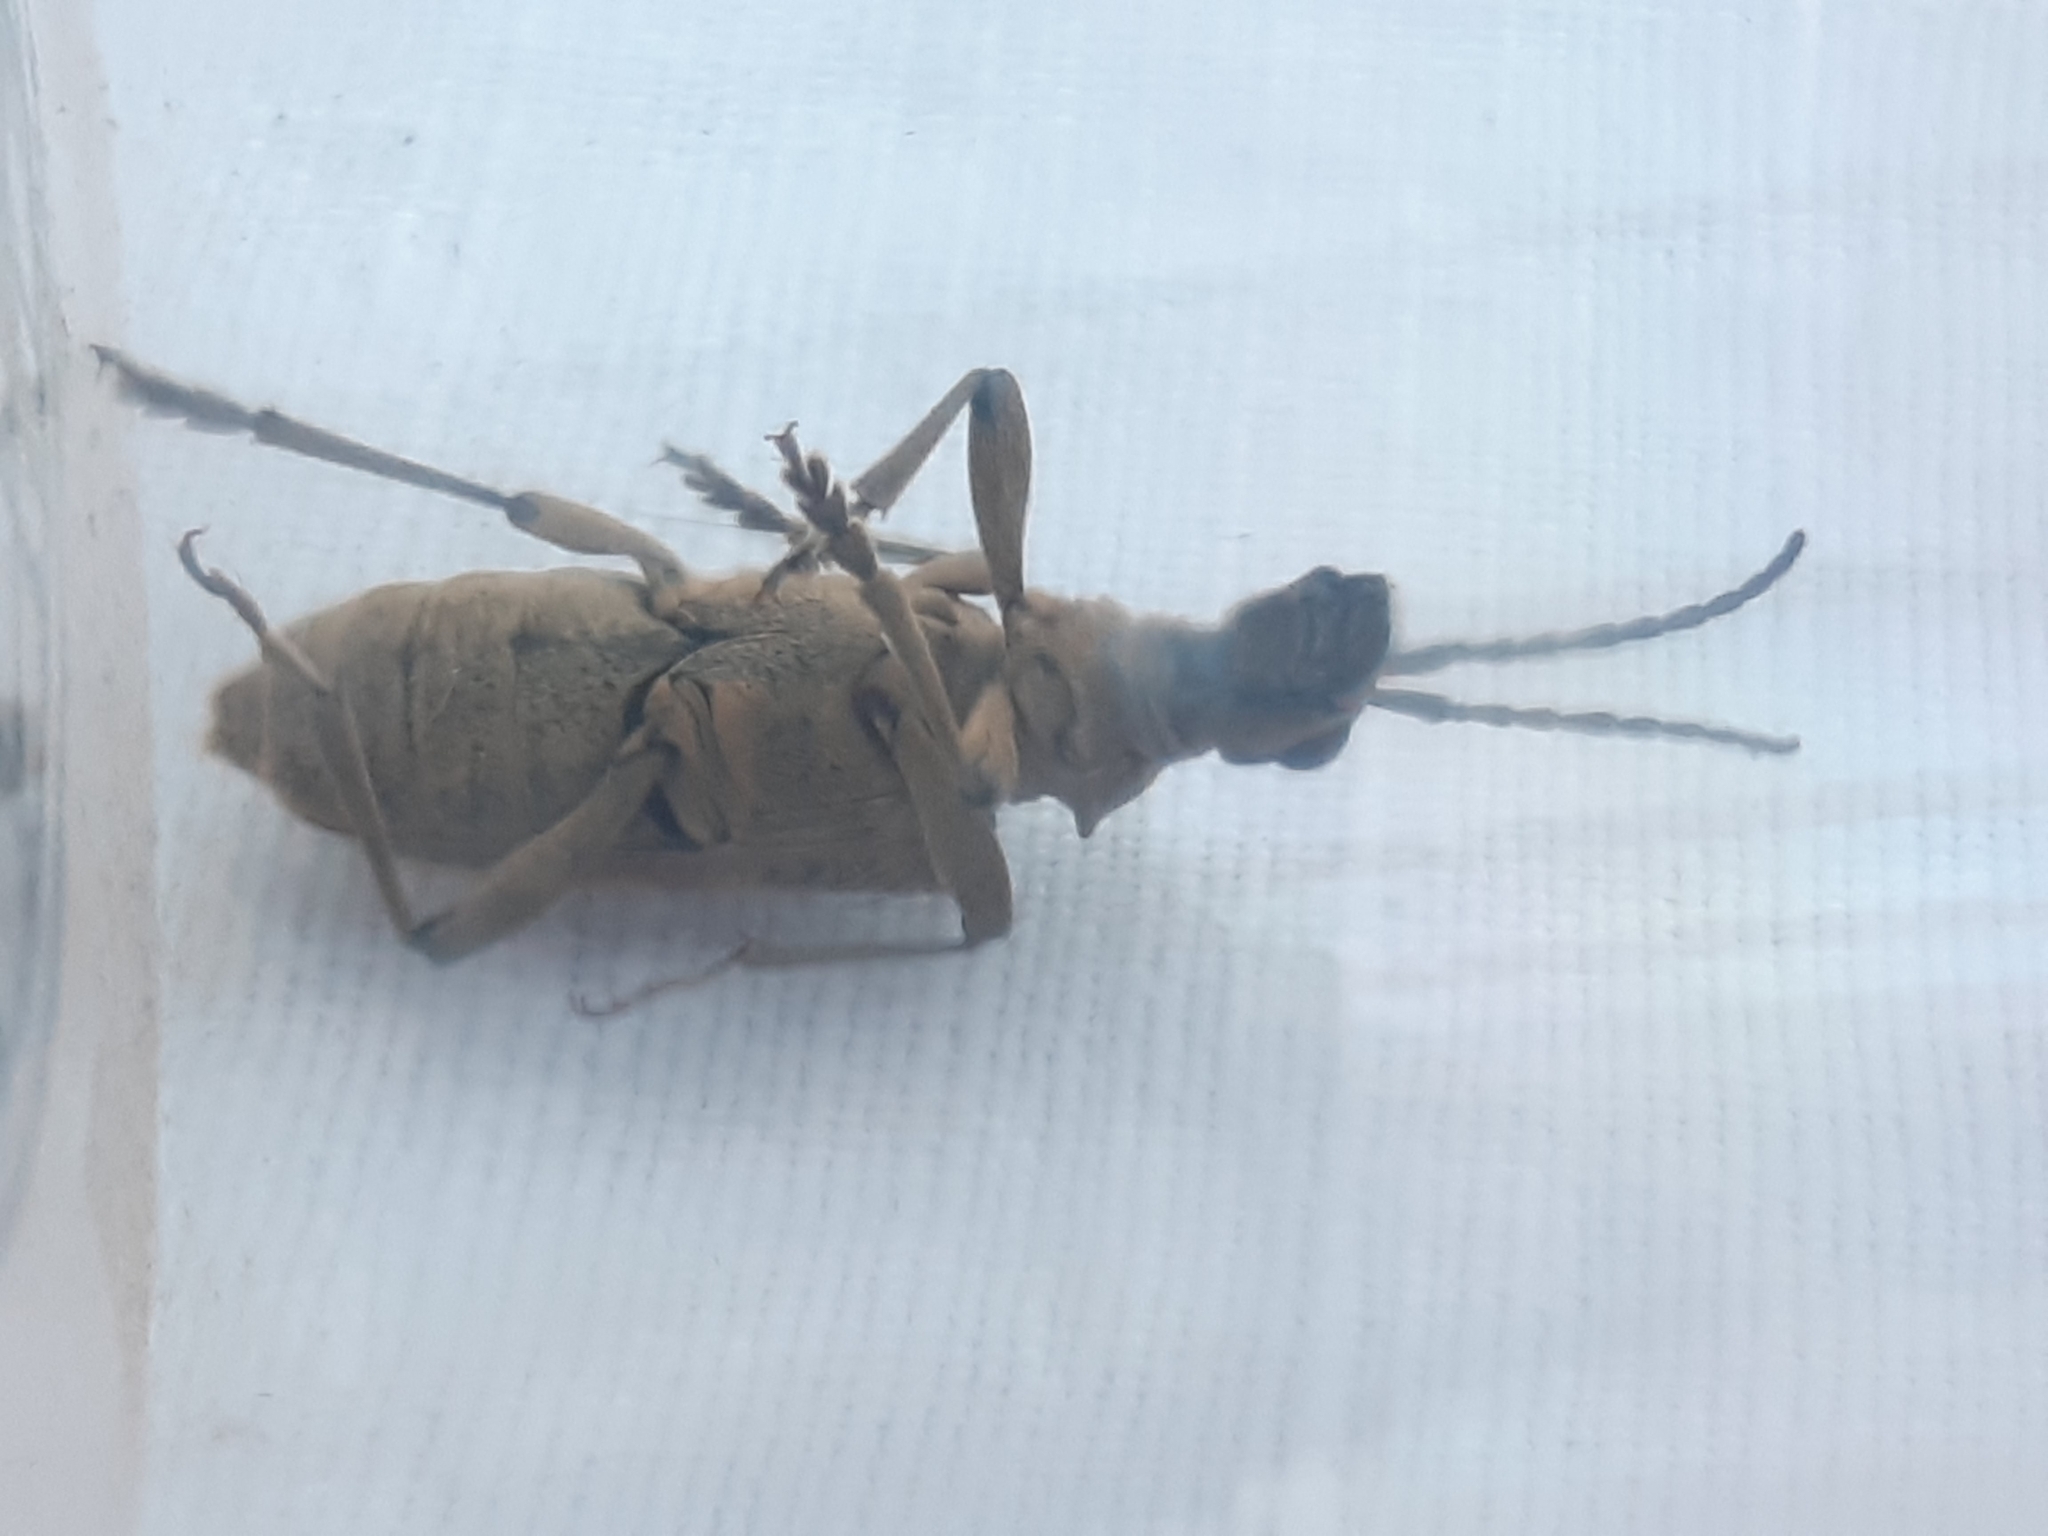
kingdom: Animalia
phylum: Arthropoda
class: Insecta
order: Coleoptera
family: Cerambycidae
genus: Rhagium
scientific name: Rhagium mordax
